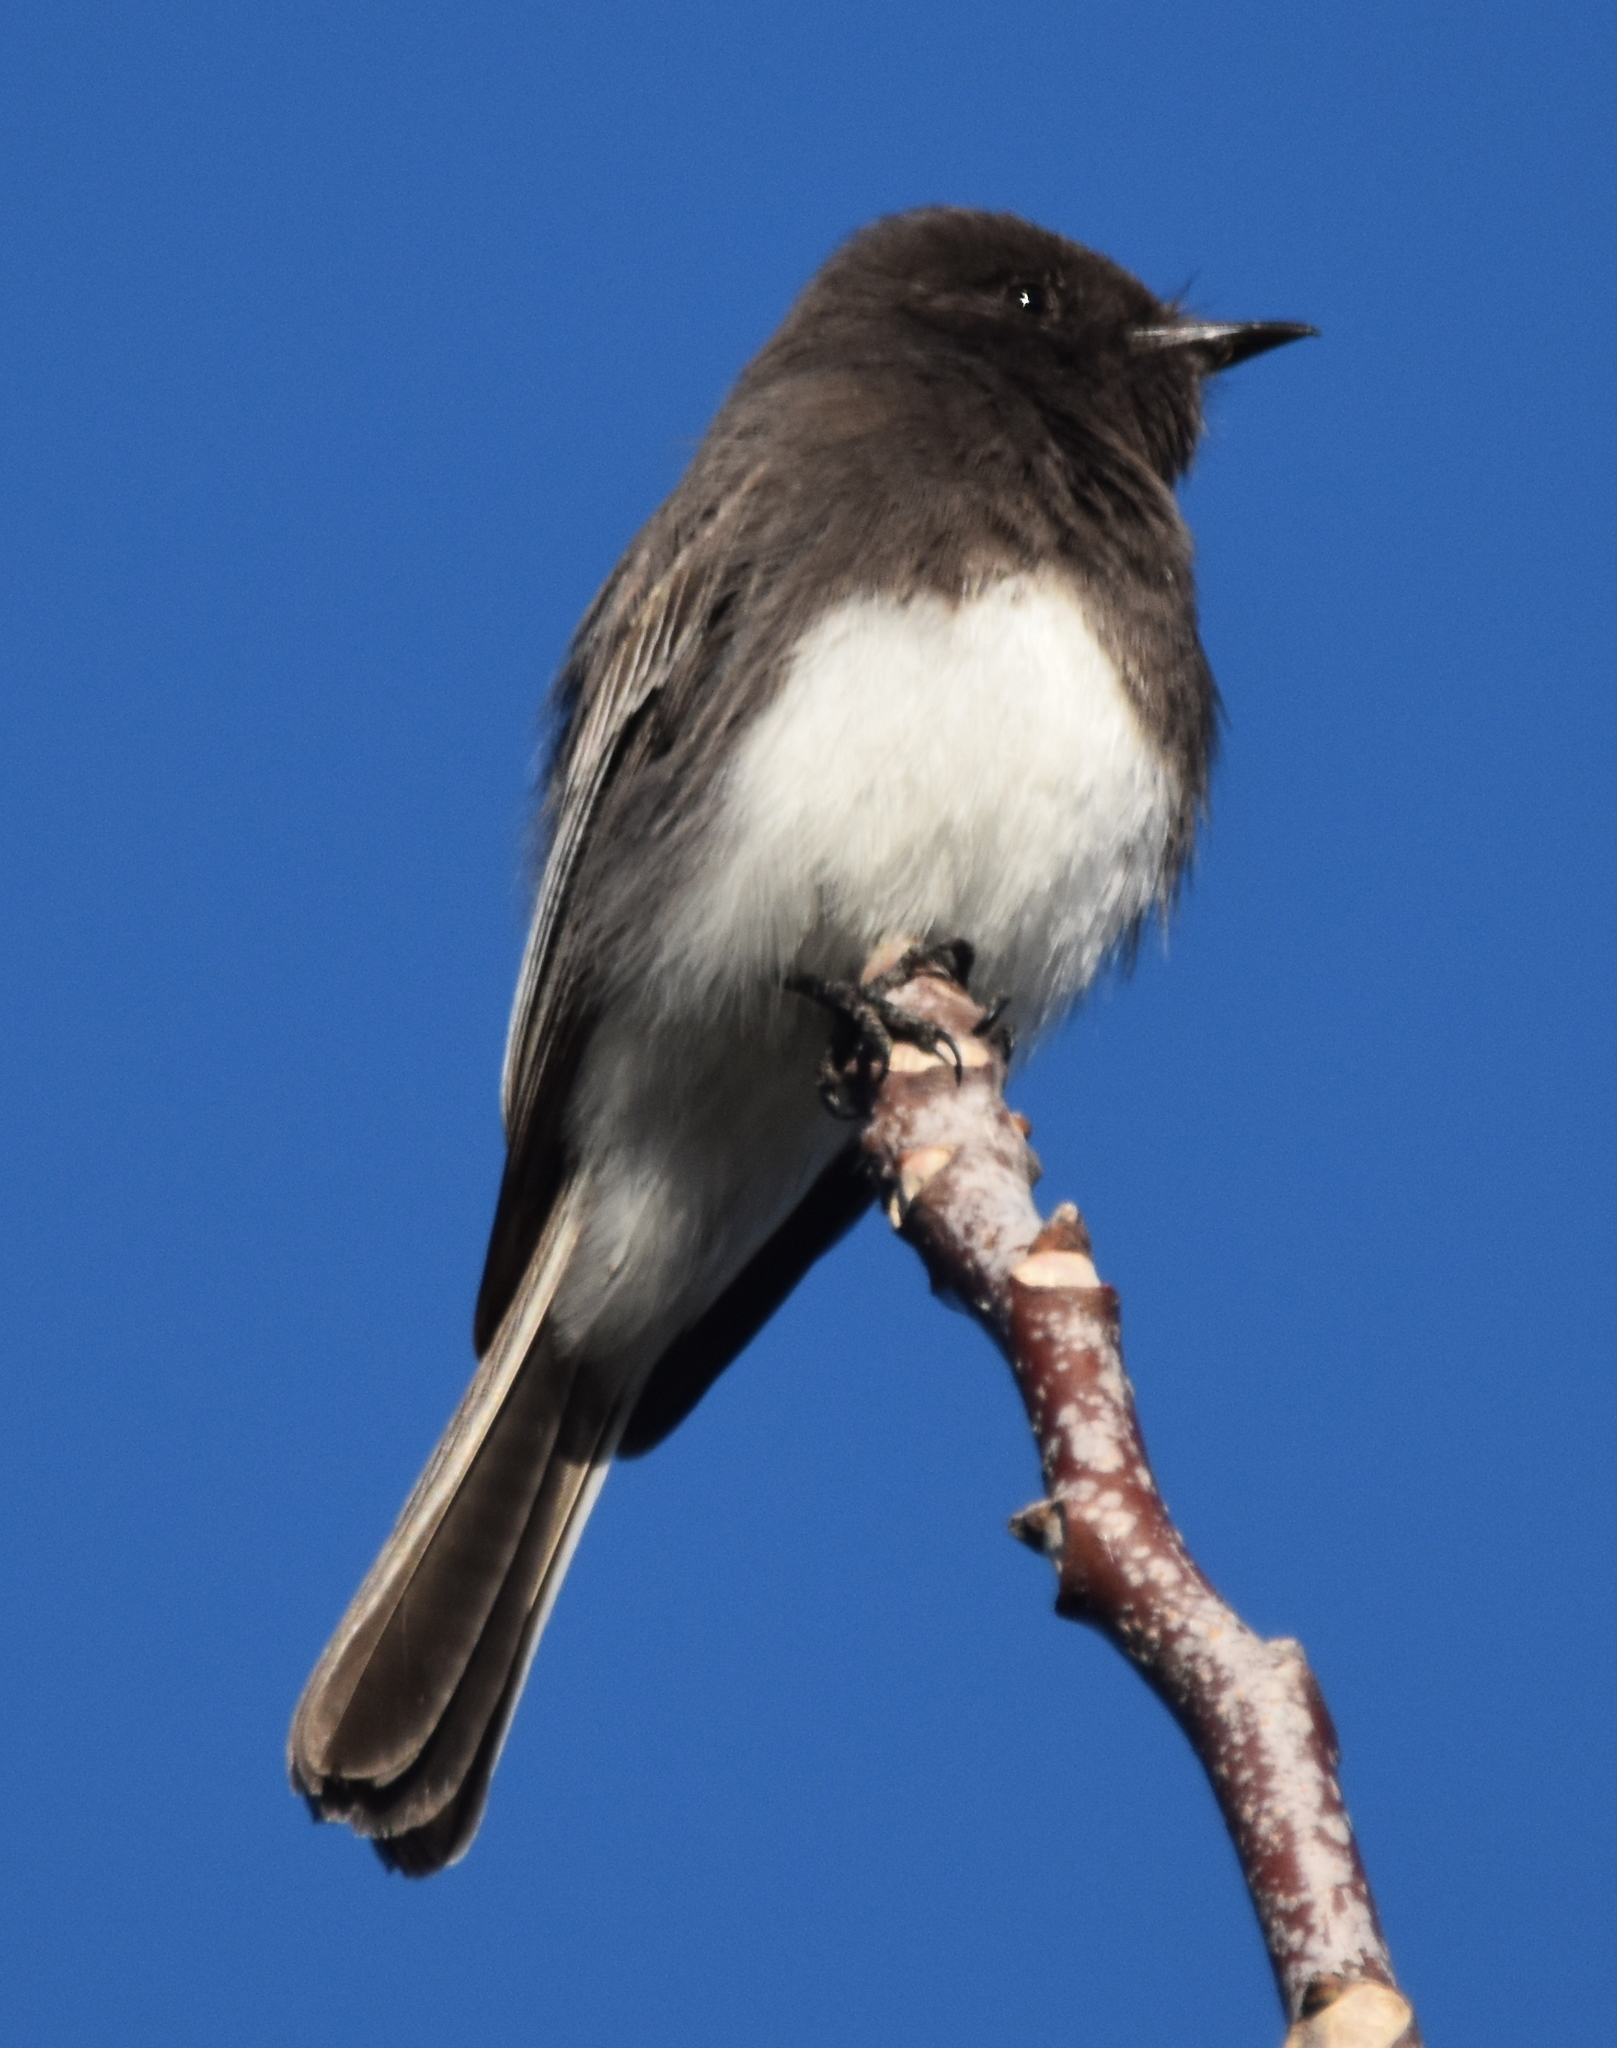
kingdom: Animalia
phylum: Chordata
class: Aves
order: Passeriformes
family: Tyrannidae
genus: Sayornis
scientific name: Sayornis nigricans
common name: Black phoebe
